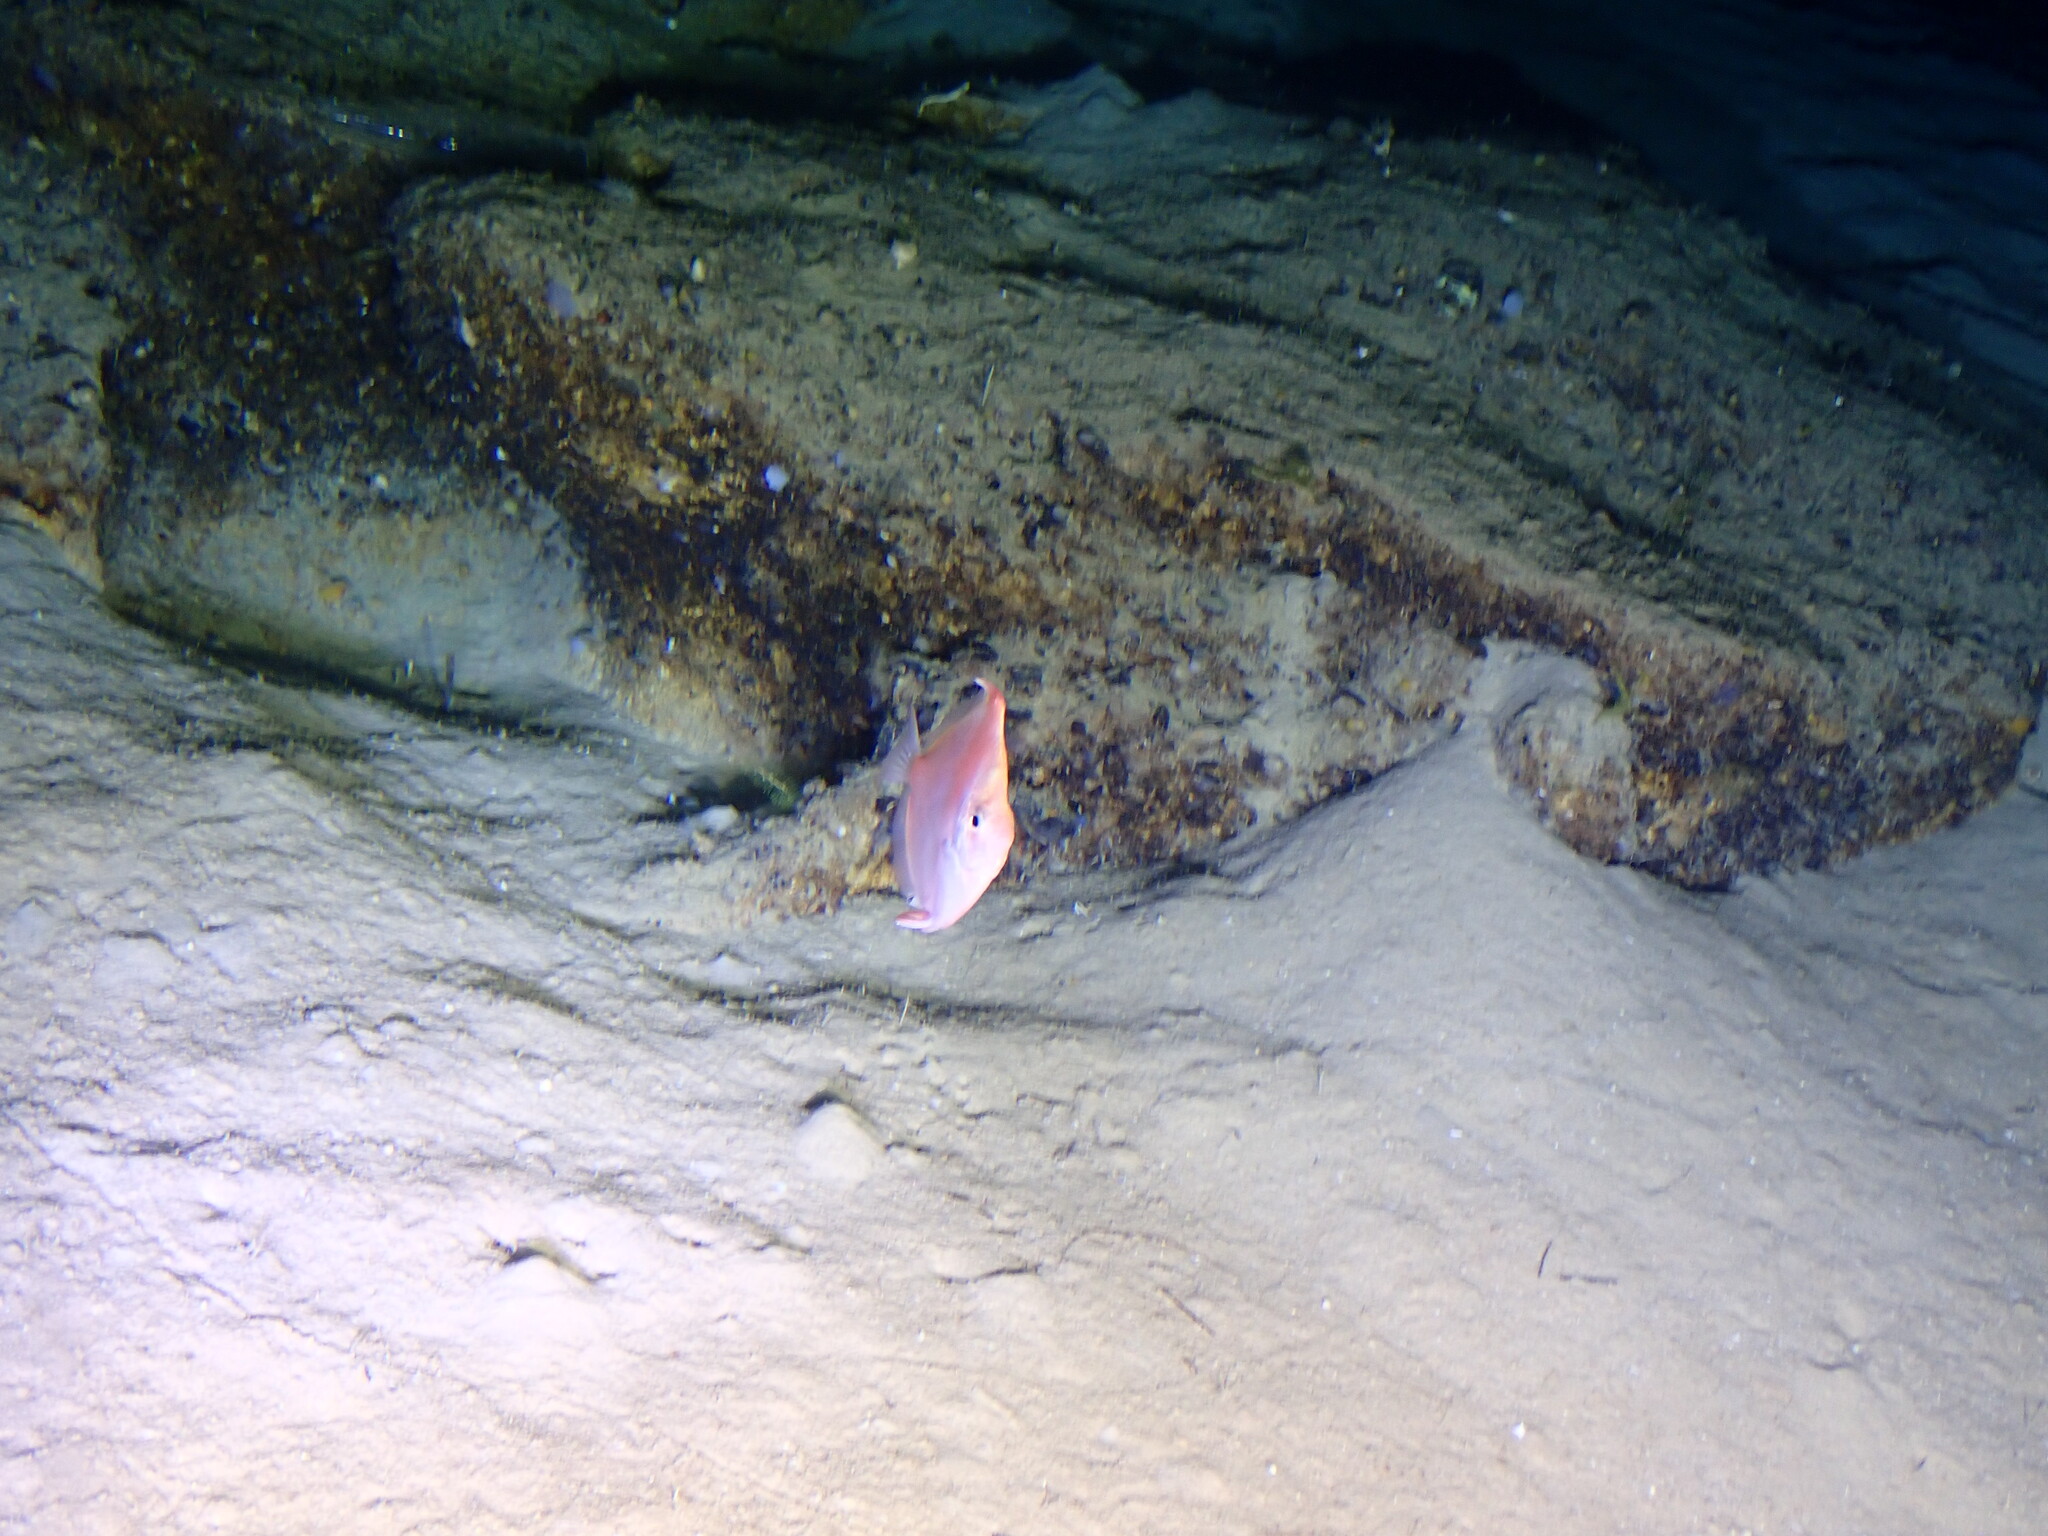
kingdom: Animalia
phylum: Chordata
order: Perciformes
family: Caproidae
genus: Antigonia
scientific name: Antigonia capros
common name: Deepbody boarfish
